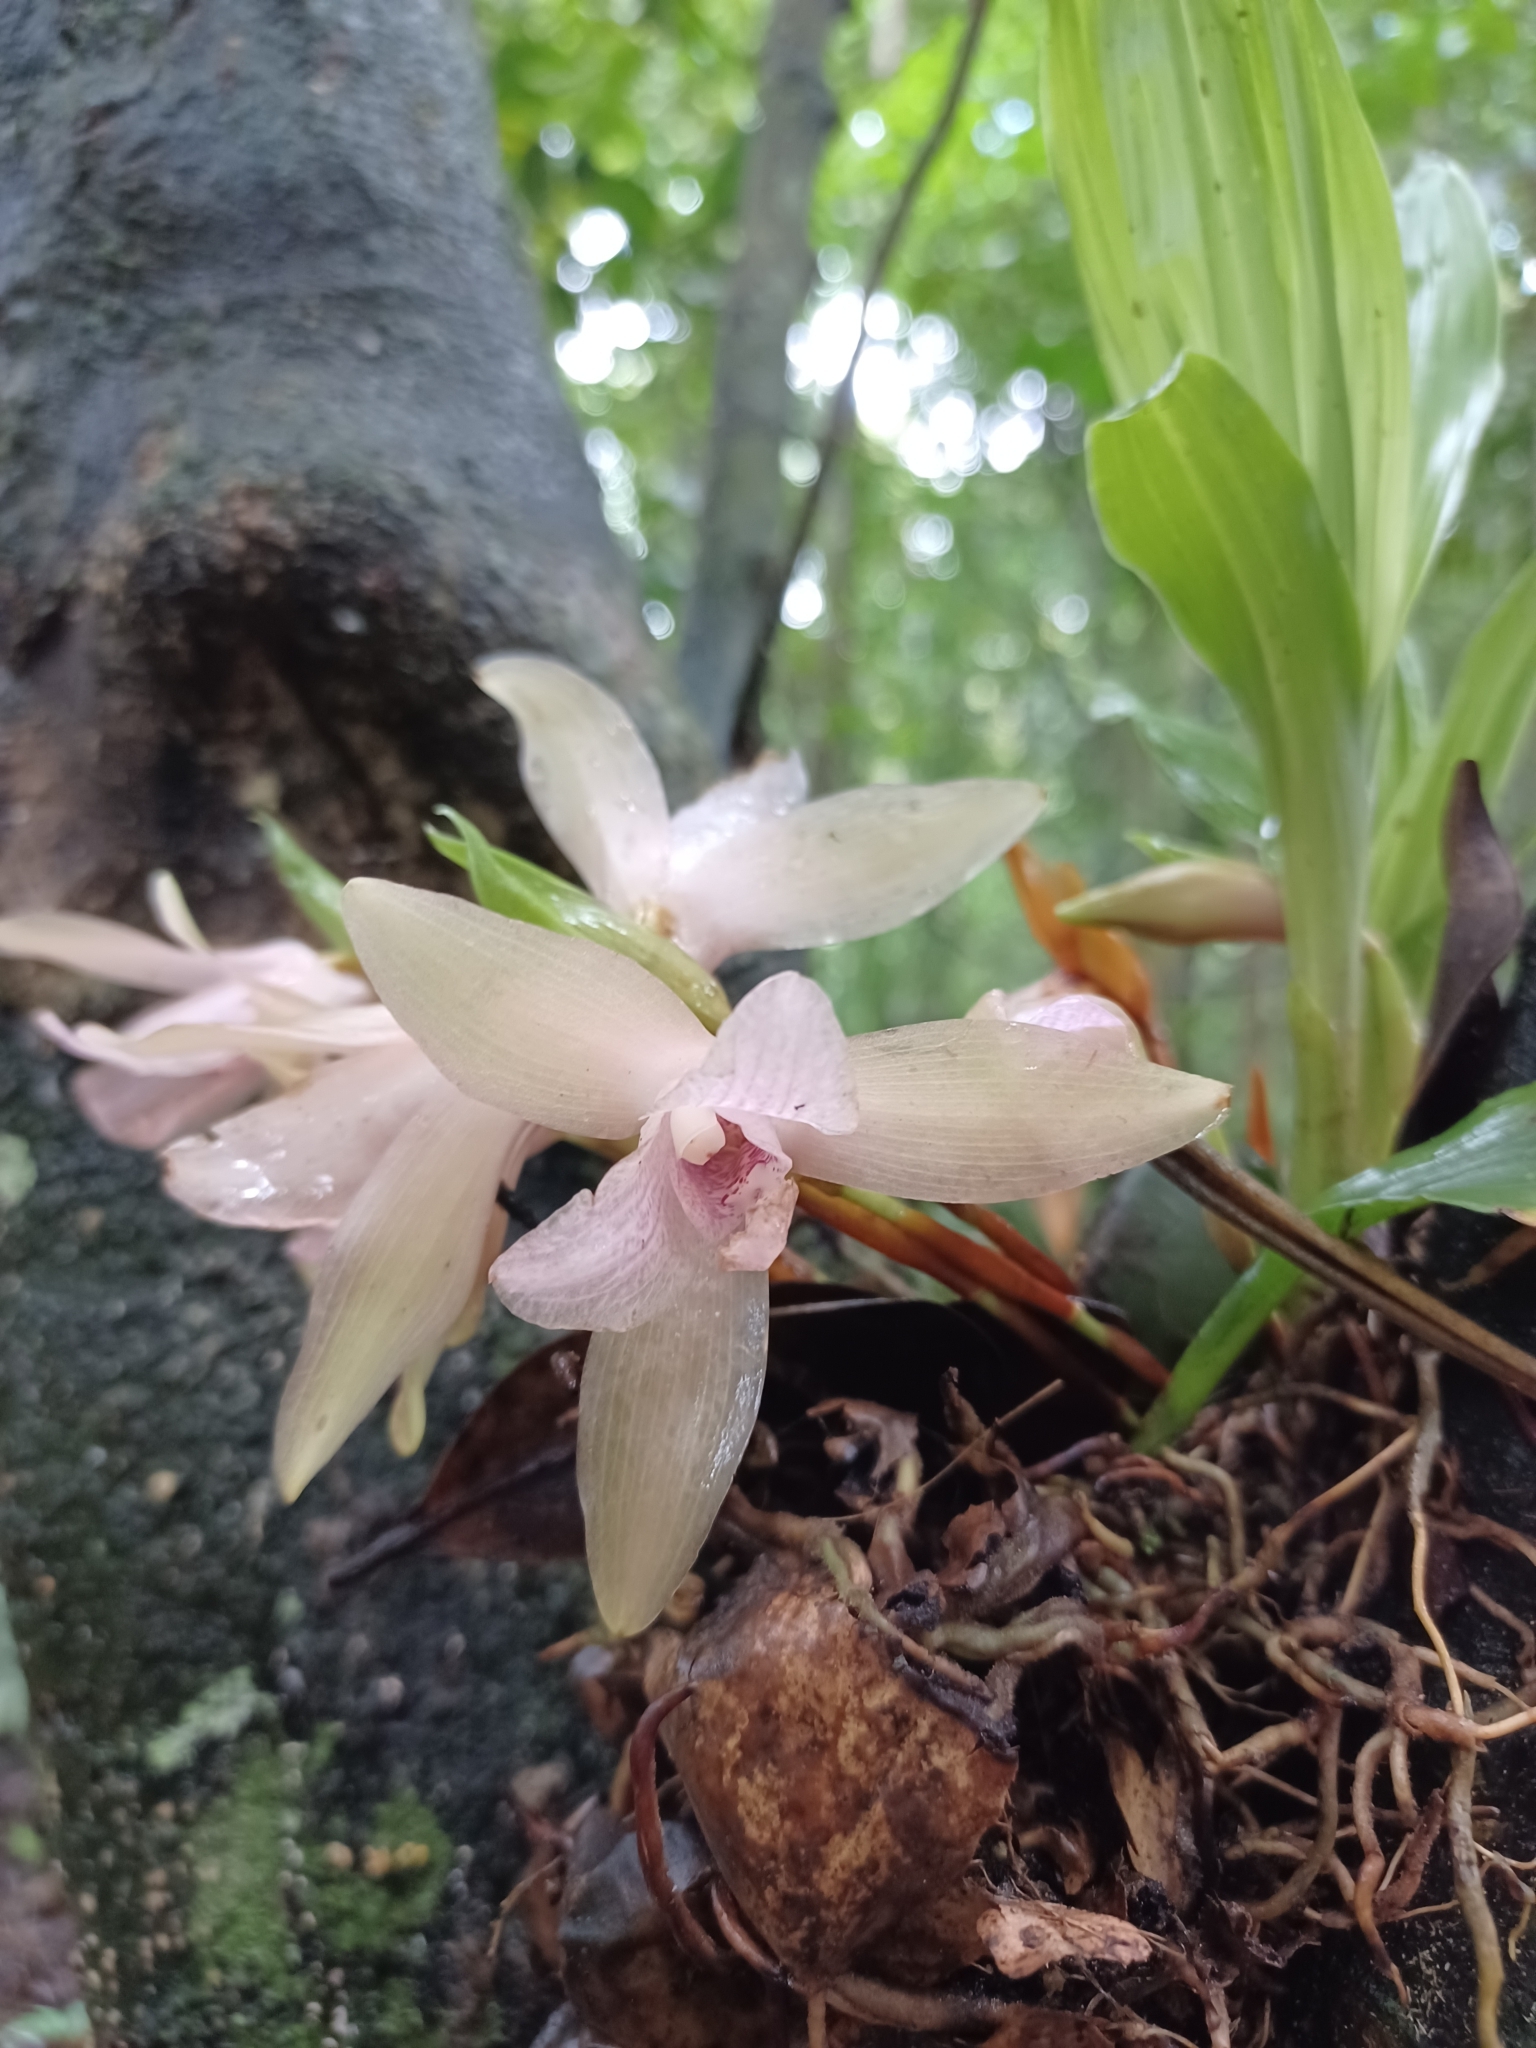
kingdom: Plantae
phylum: Tracheophyta
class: Liliopsida
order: Asparagales
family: Orchidaceae
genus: Lycaste
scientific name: Lycaste tricolor
